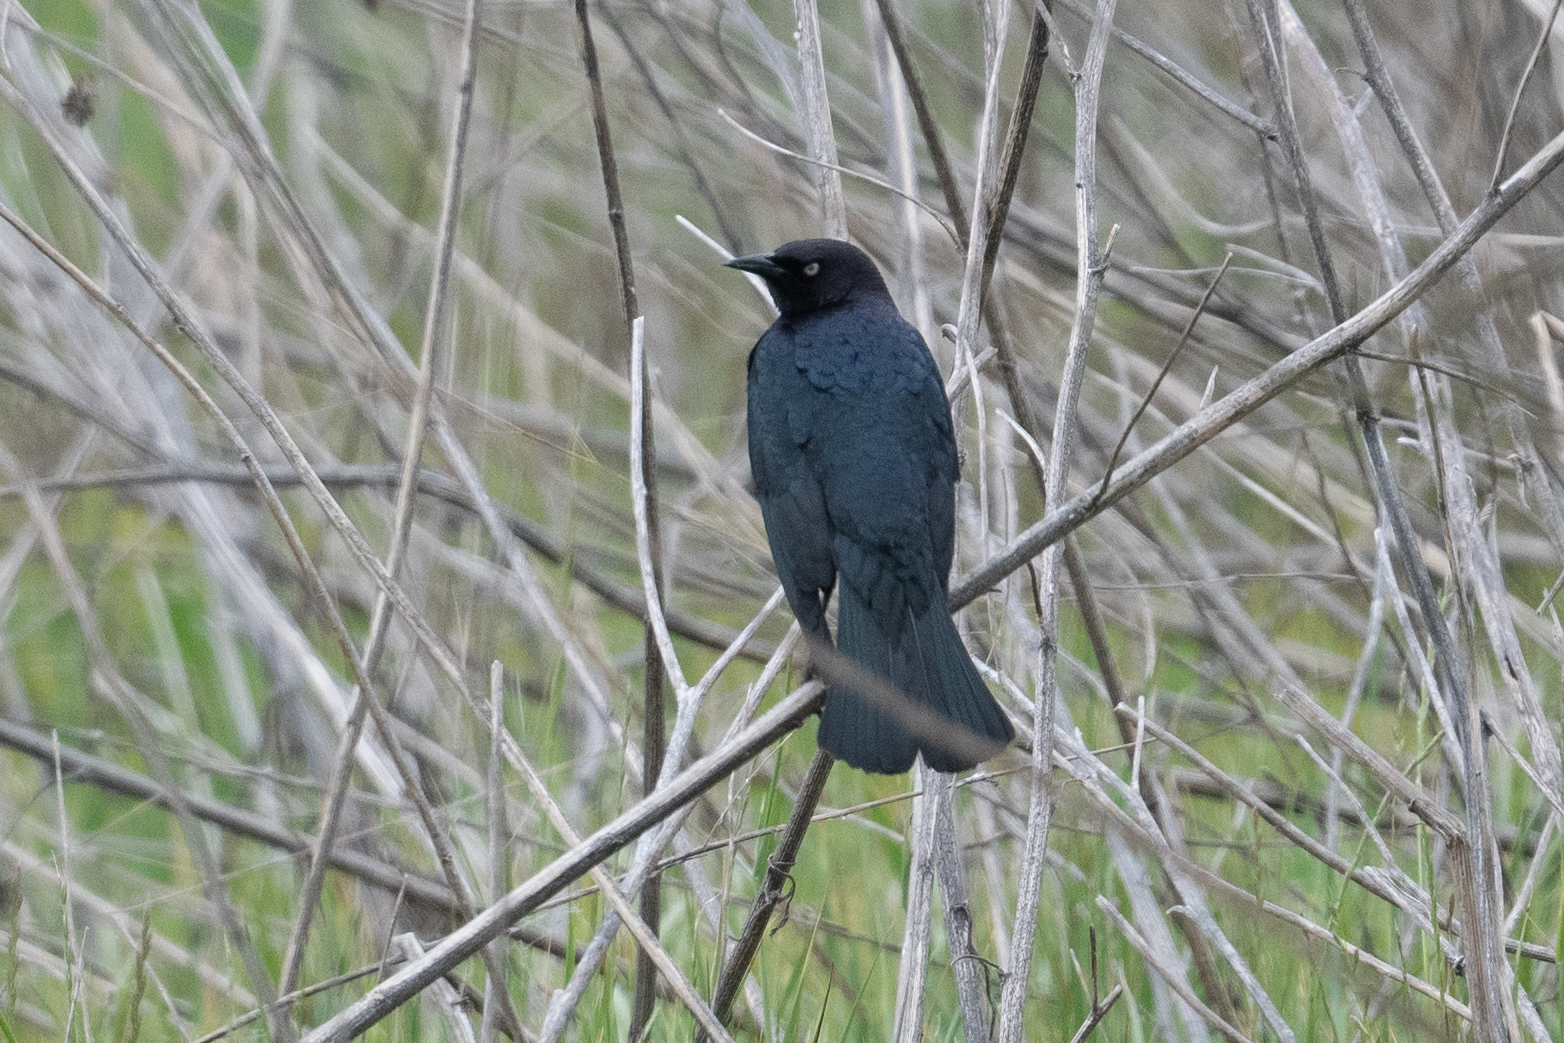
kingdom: Animalia
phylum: Chordata
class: Aves
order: Passeriformes
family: Icteridae
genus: Euphagus
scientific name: Euphagus cyanocephalus
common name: Brewer's blackbird
